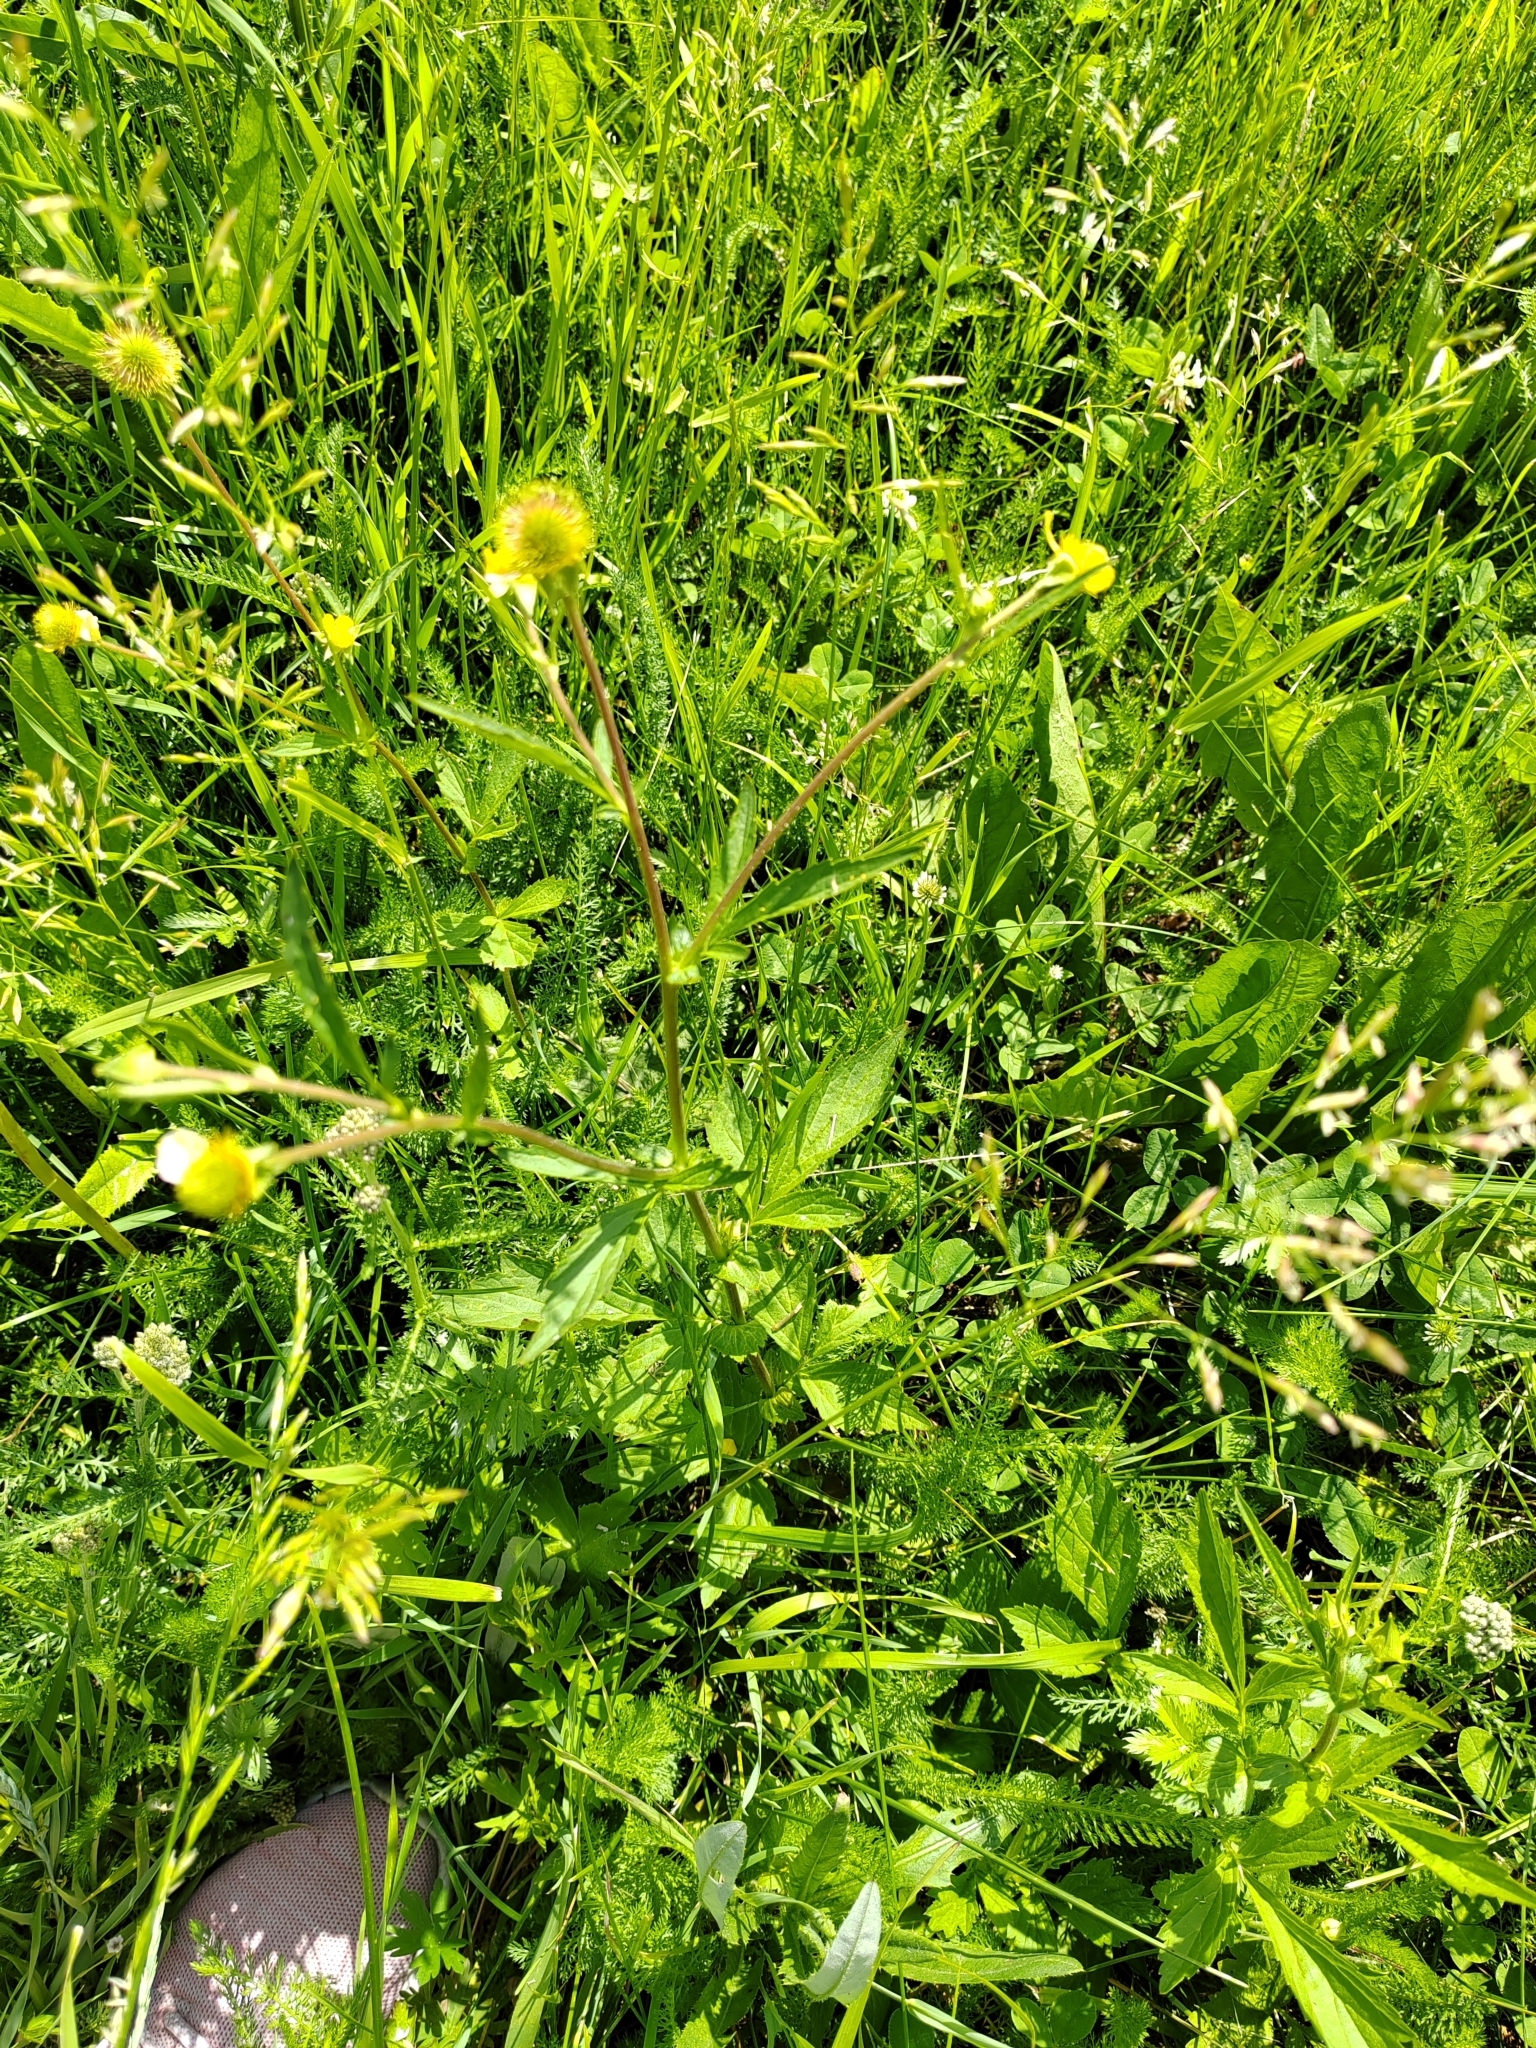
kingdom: Plantae
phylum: Tracheophyta
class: Magnoliopsida
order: Rosales
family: Rosaceae
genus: Geum
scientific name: Geum aleppicum
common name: Yellow avens
